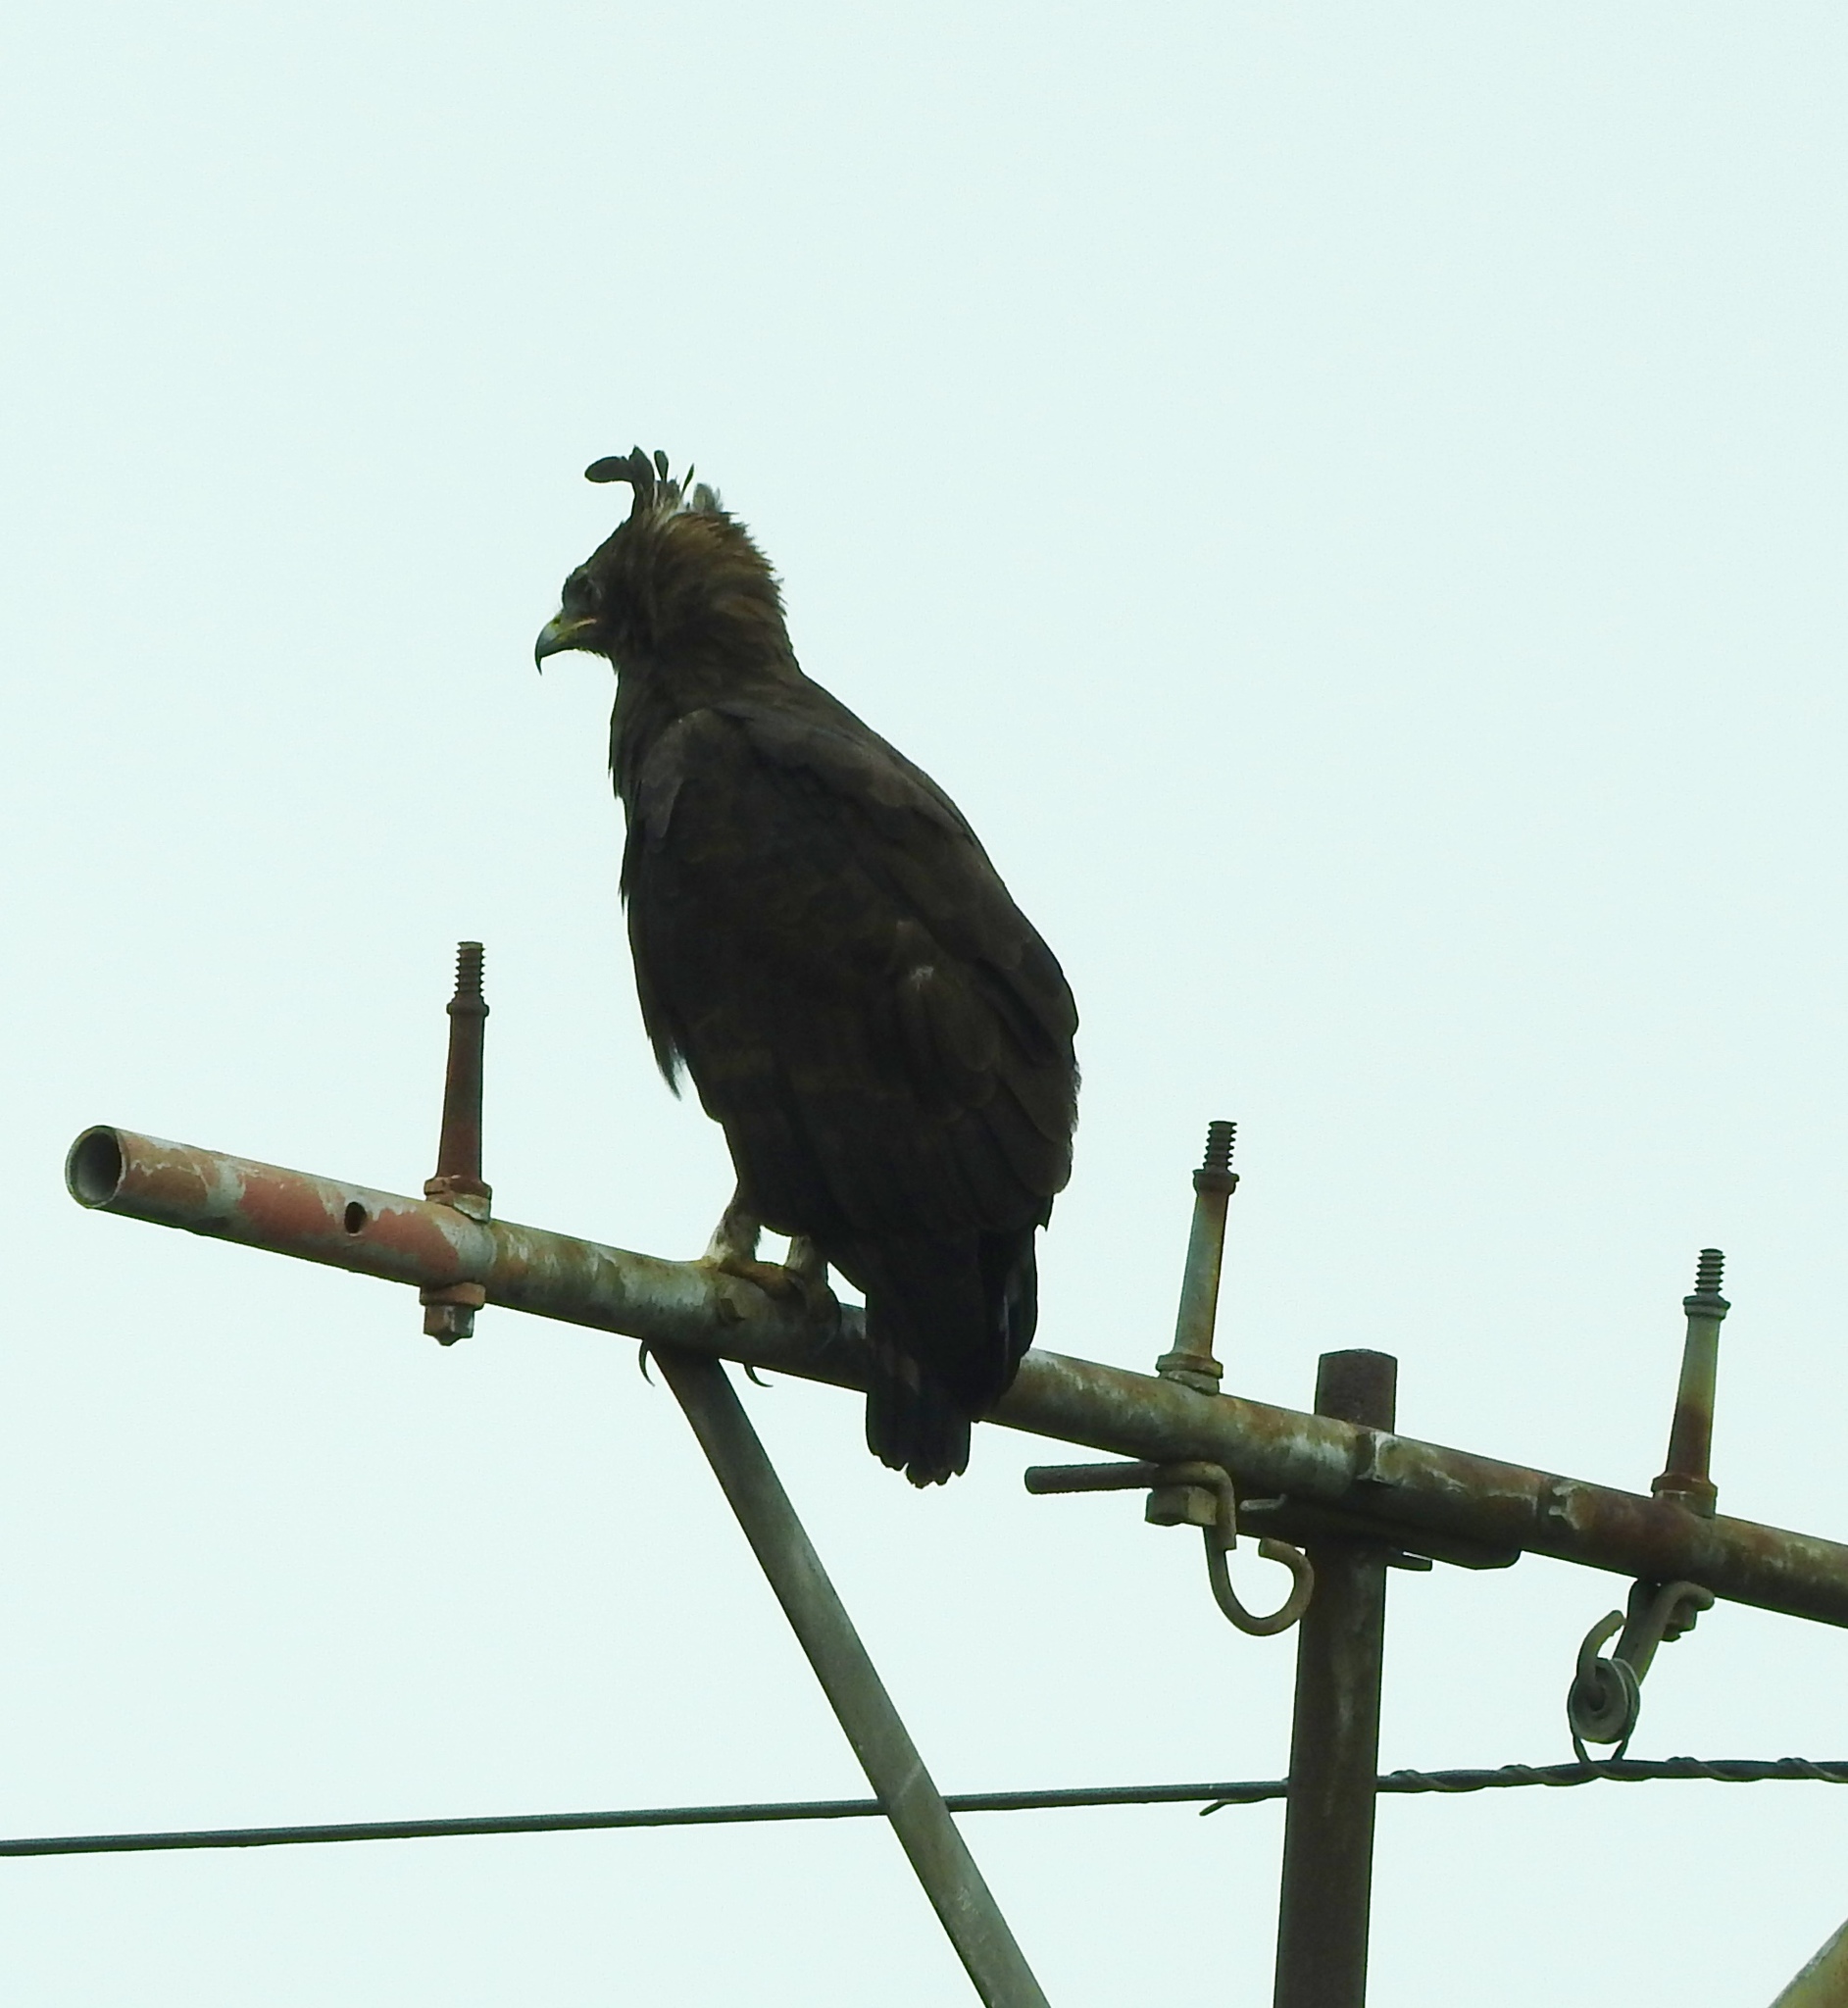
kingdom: Animalia
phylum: Chordata
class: Aves
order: Accipitriformes
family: Accipitridae
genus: Lophaetus
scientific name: Lophaetus occipitalis
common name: Long-crested eagle
